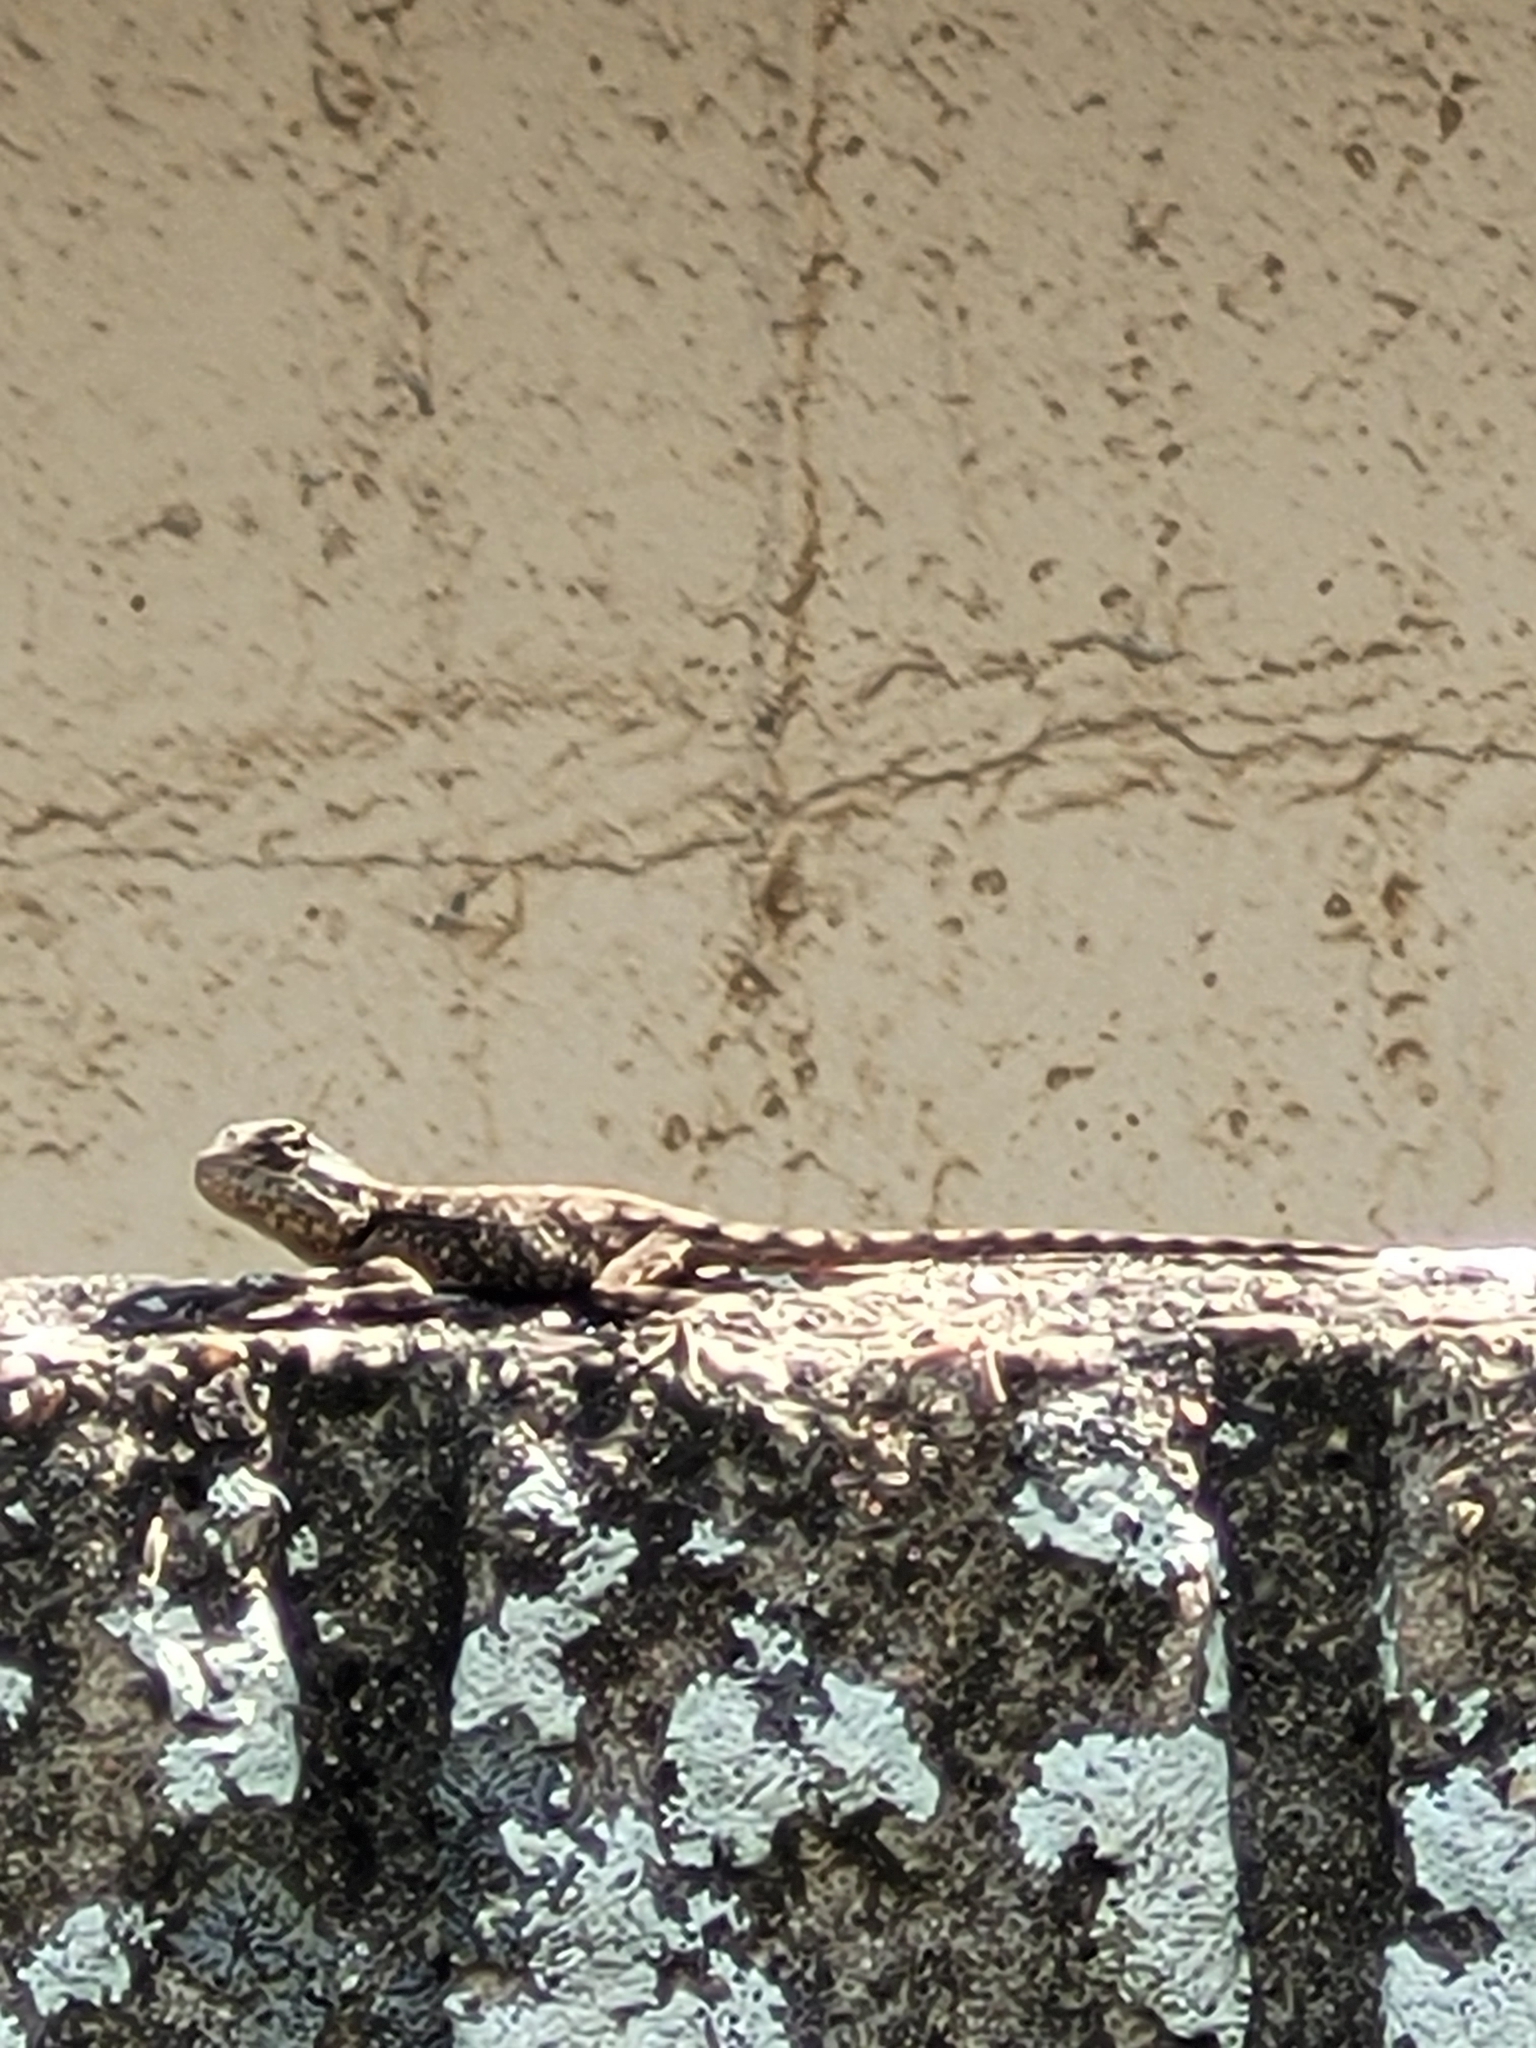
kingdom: Animalia
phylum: Chordata
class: Squamata
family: Agamidae
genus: Acanthocercus
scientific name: Acanthocercus atricollis
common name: Southern tree agama
